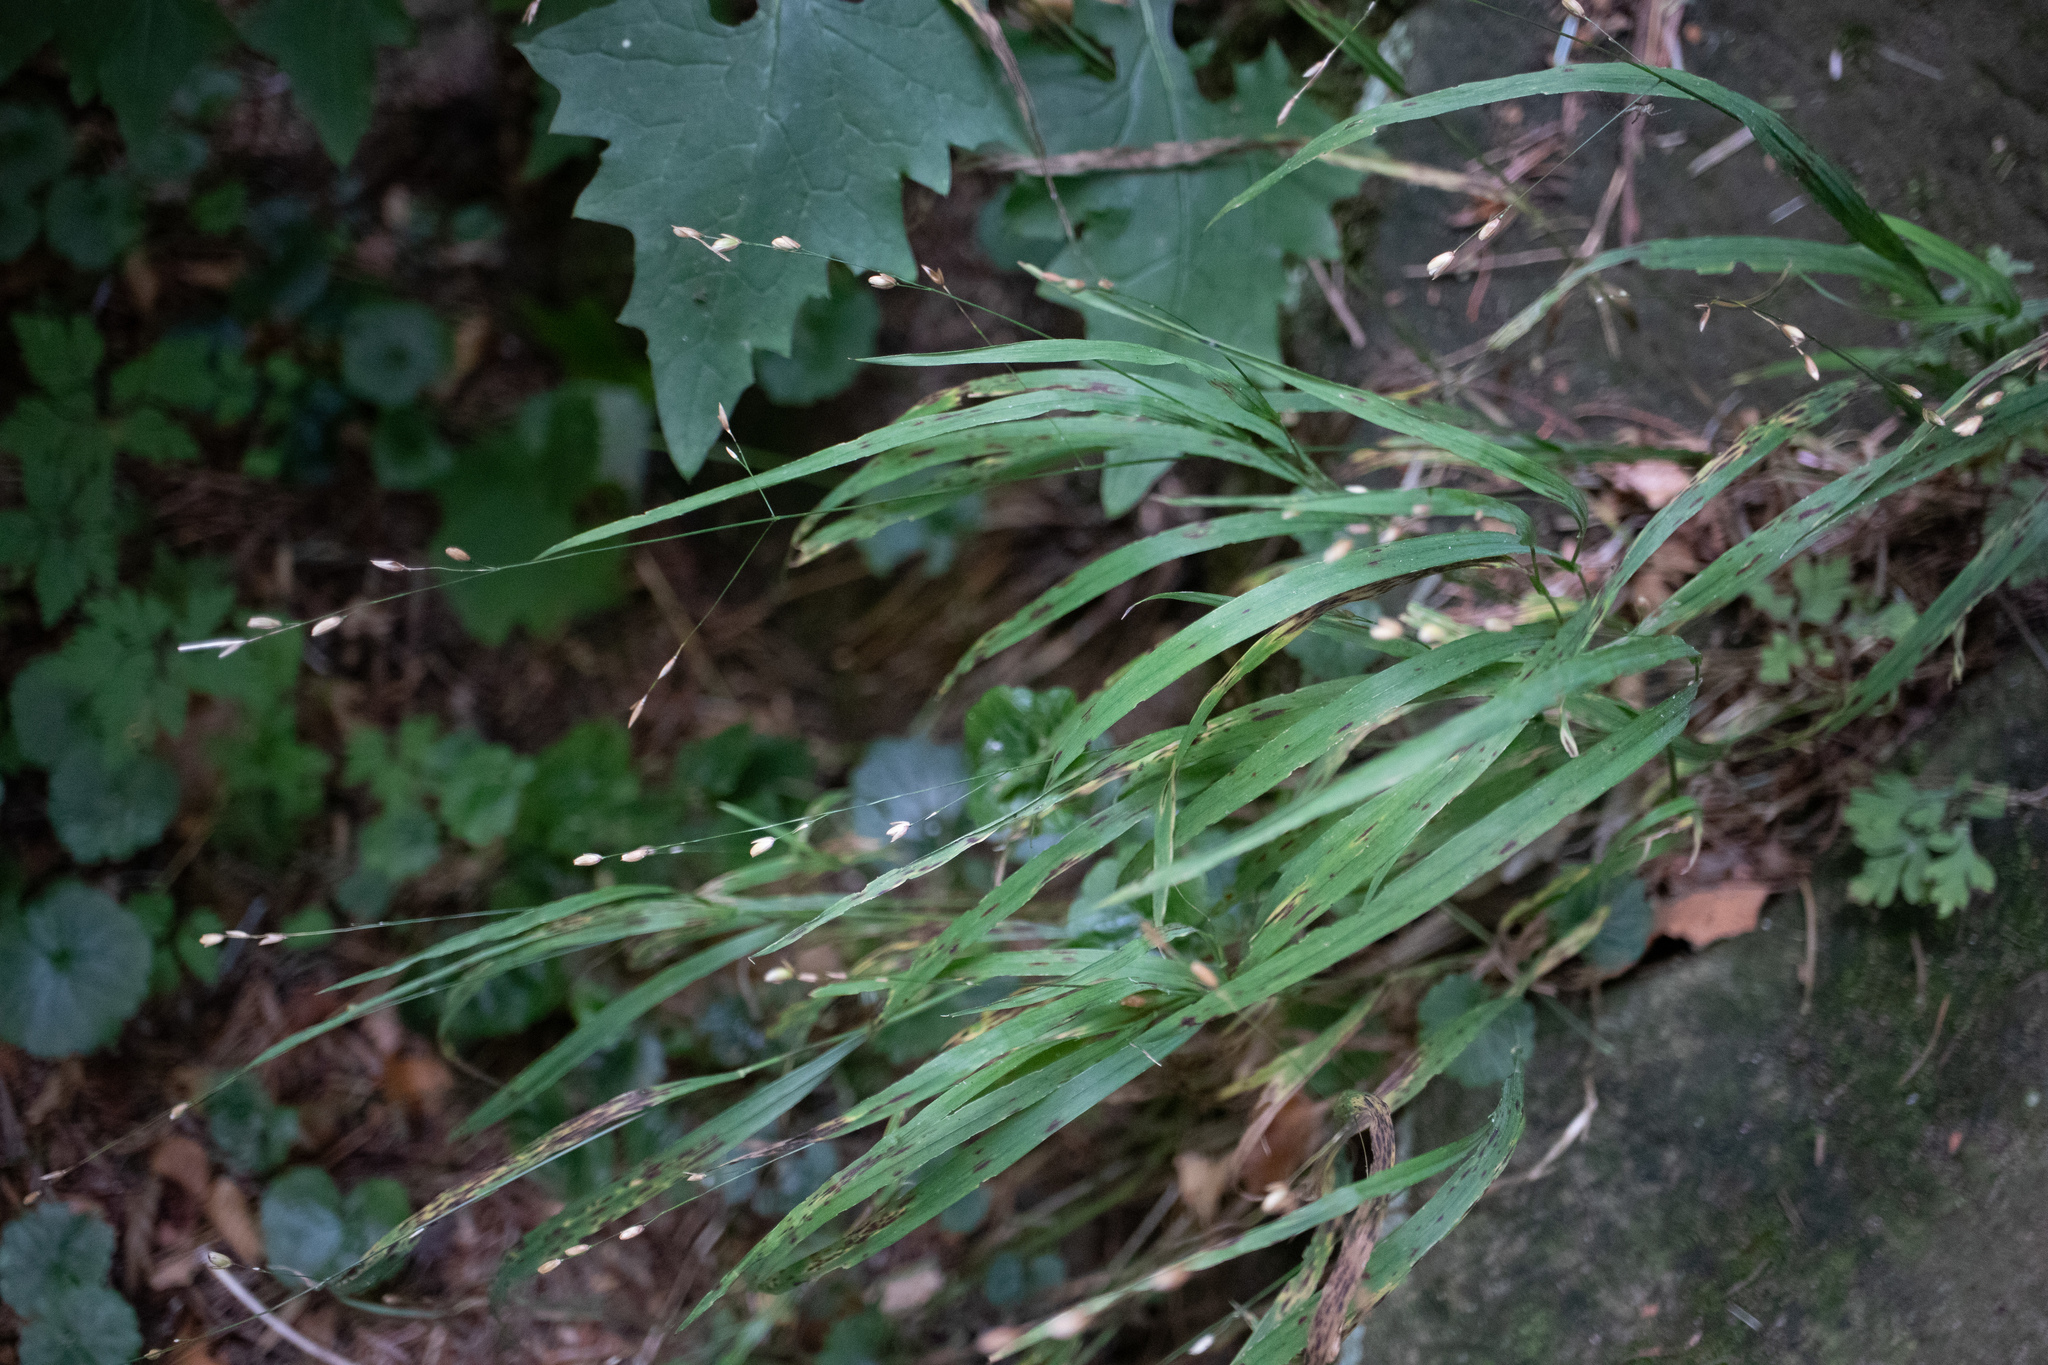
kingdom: Plantae
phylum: Tracheophyta
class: Liliopsida
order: Poales
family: Poaceae
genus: Melica
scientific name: Melica uniflora
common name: Wood melick
